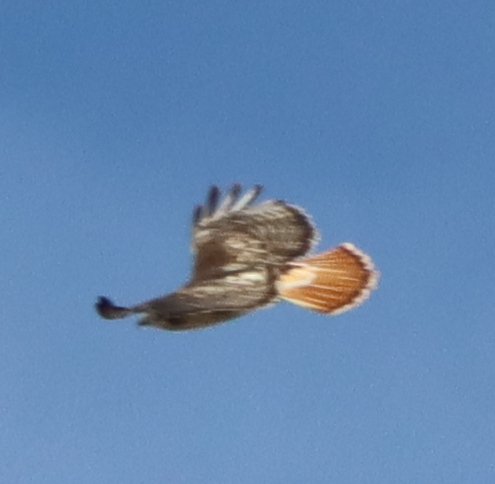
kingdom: Animalia
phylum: Chordata
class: Aves
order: Accipitriformes
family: Accipitridae
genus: Buteo
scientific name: Buteo jamaicensis
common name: Red-tailed hawk
